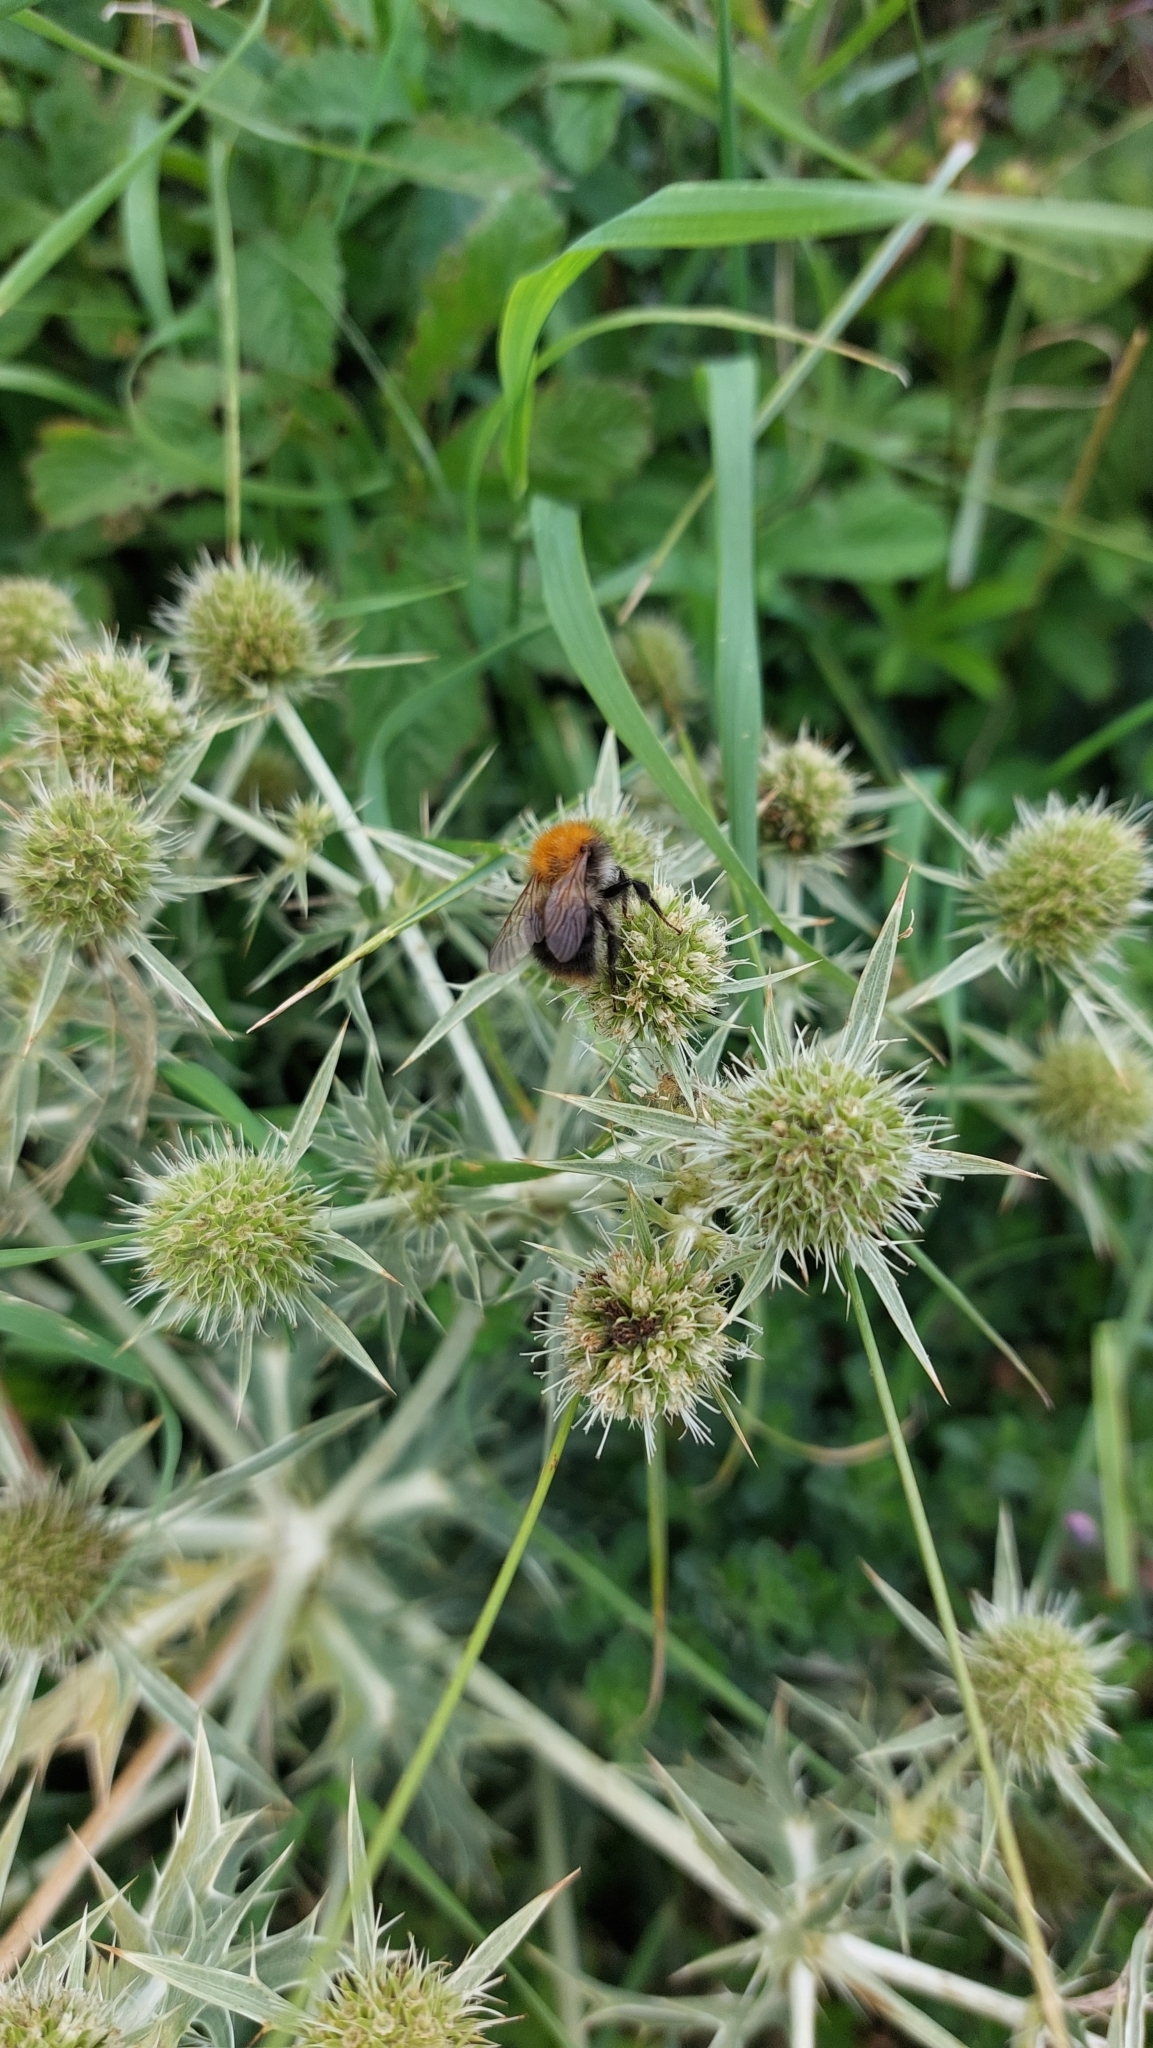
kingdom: Animalia
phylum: Arthropoda
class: Insecta
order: Hymenoptera
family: Apidae
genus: Bombus
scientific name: Bombus pascuorum
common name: Common carder bee
